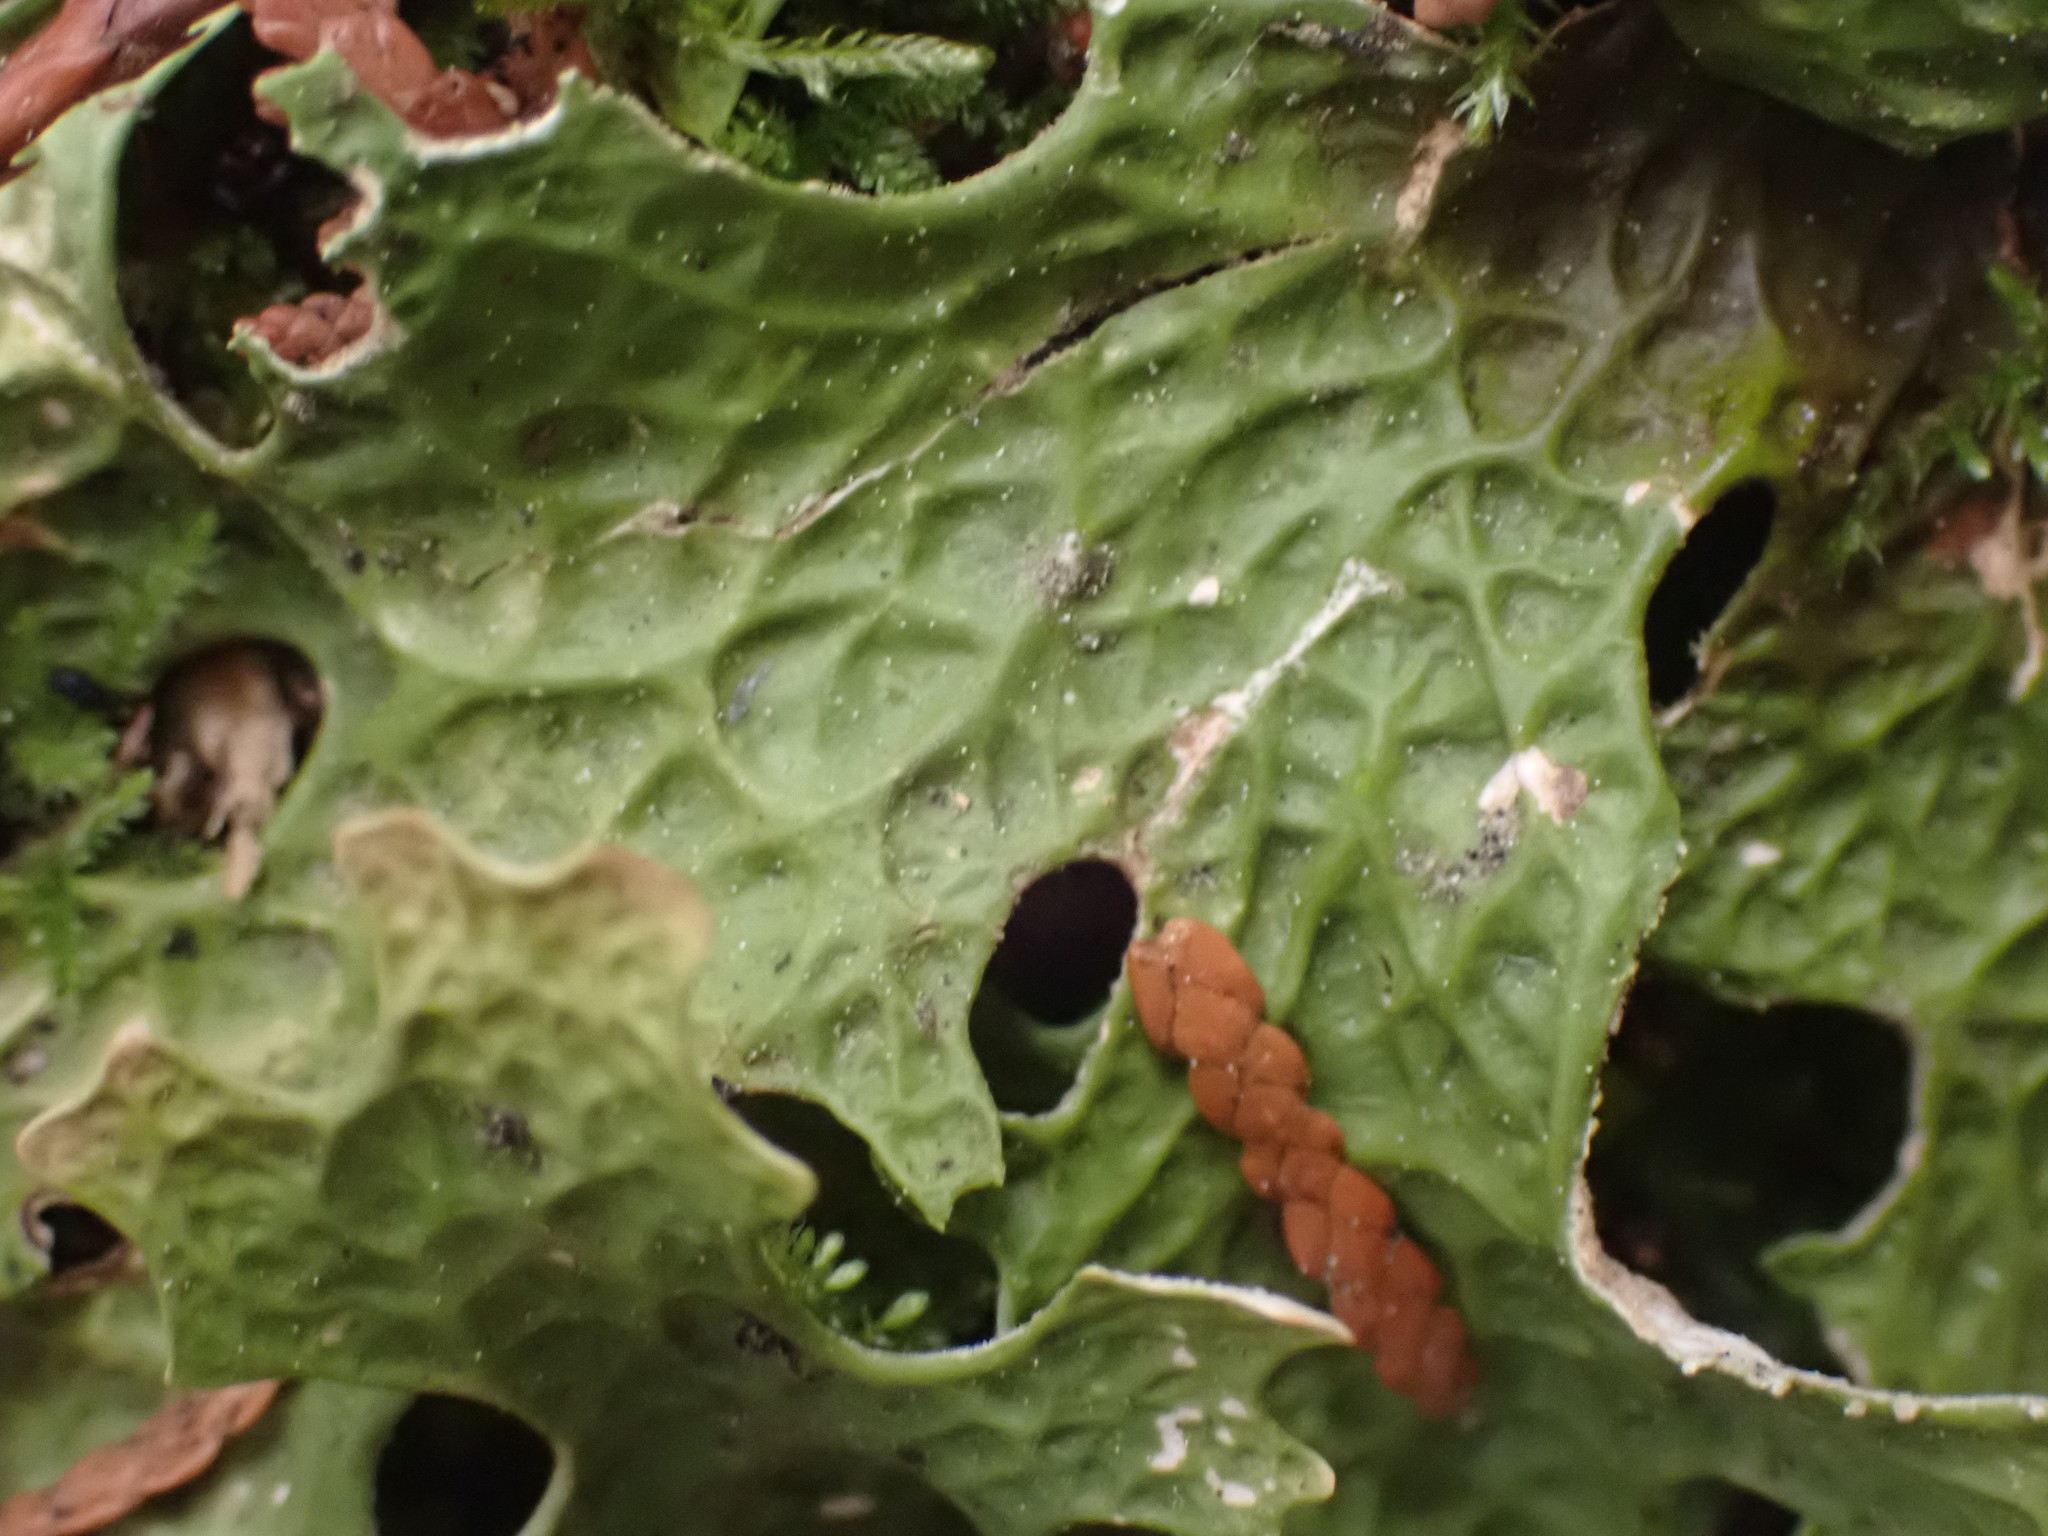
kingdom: Fungi
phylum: Ascomycota
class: Lecanoromycetes
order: Peltigerales
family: Lobariaceae
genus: Lobaria
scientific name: Lobaria pulmonaria
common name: Lungwort
